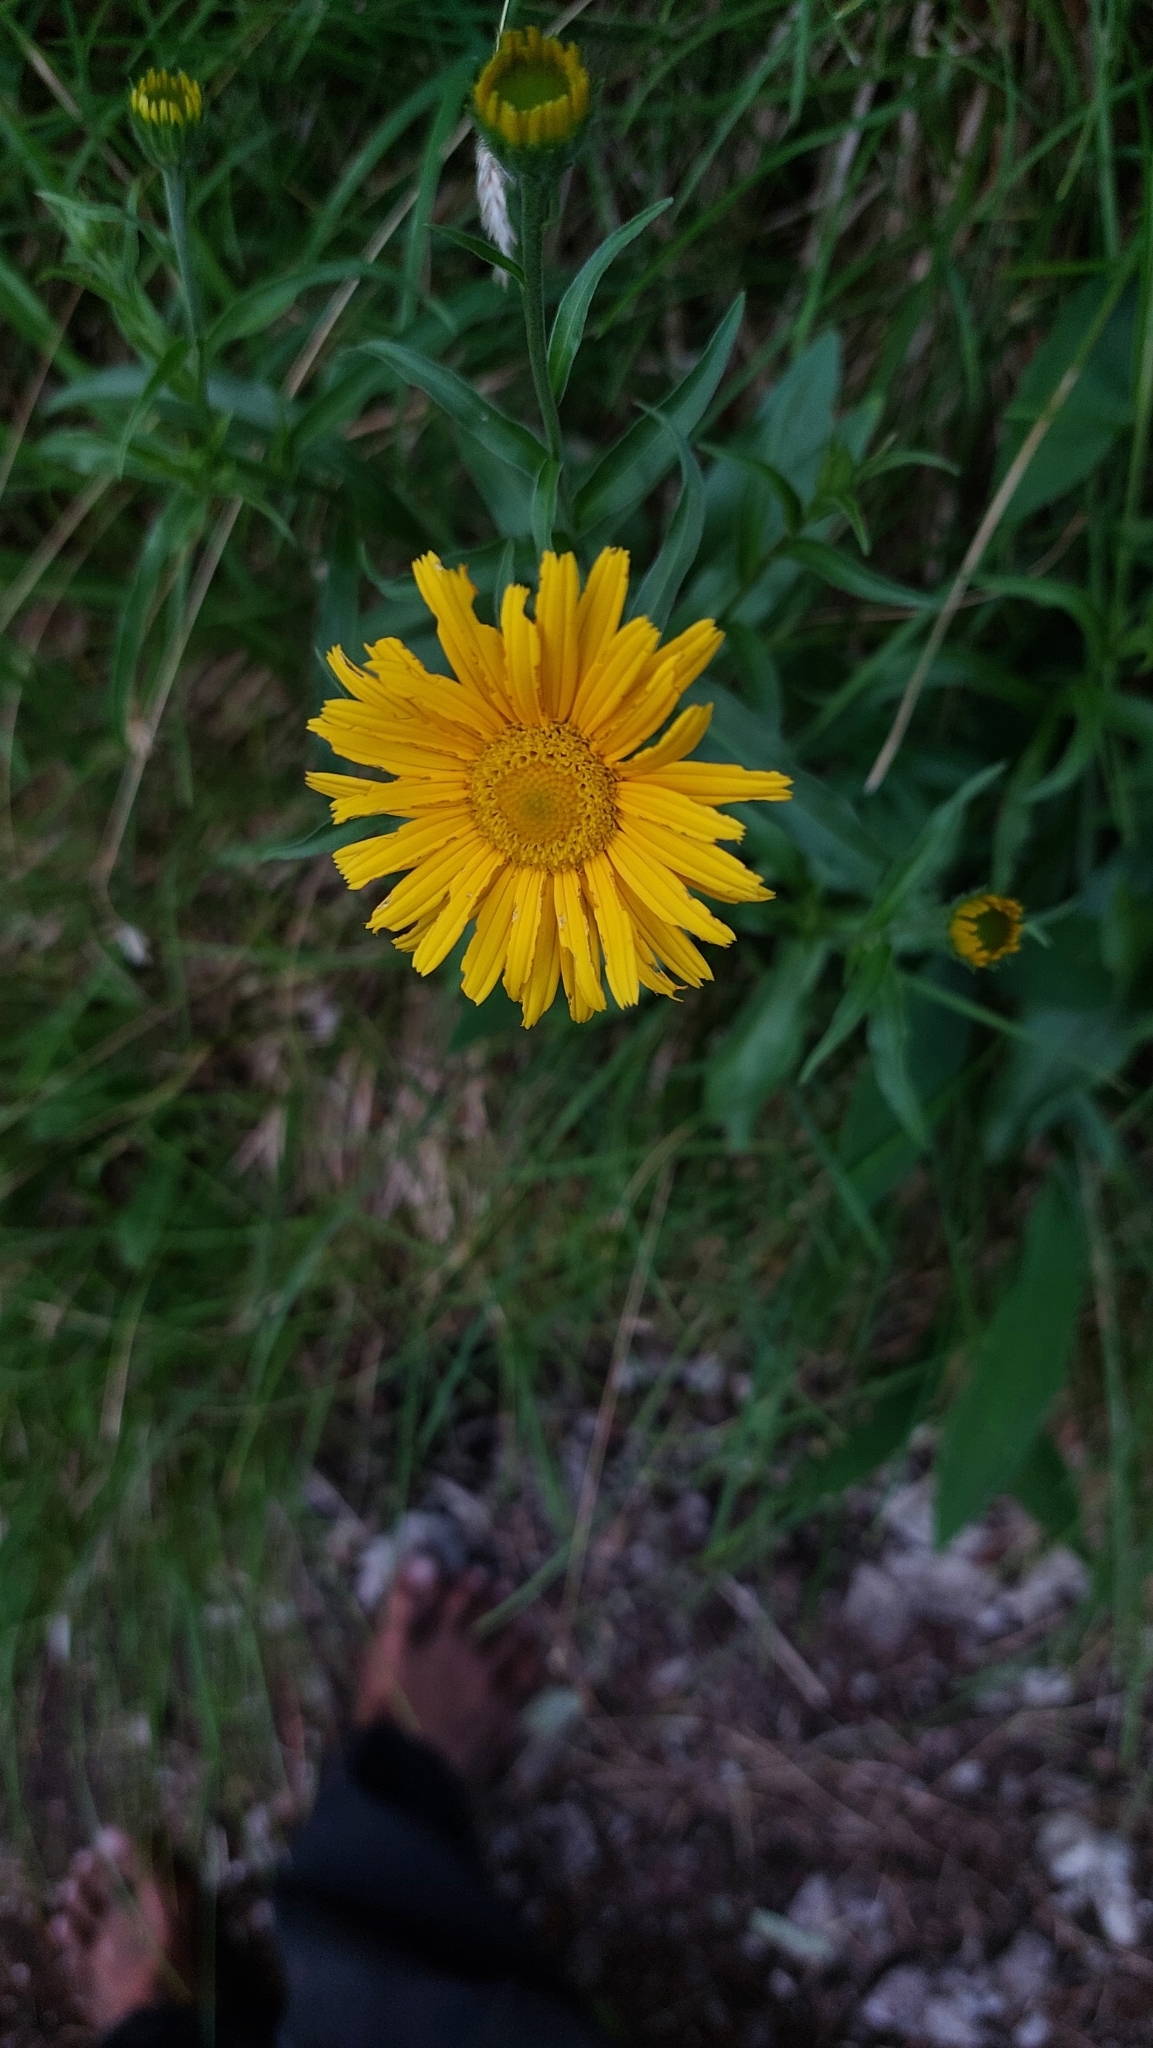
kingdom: Plantae
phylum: Tracheophyta
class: Magnoliopsida
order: Asterales
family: Asteraceae
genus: Buphthalmum
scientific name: Buphthalmum salicifolium
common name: Willow-leaved yellow-oxeye
